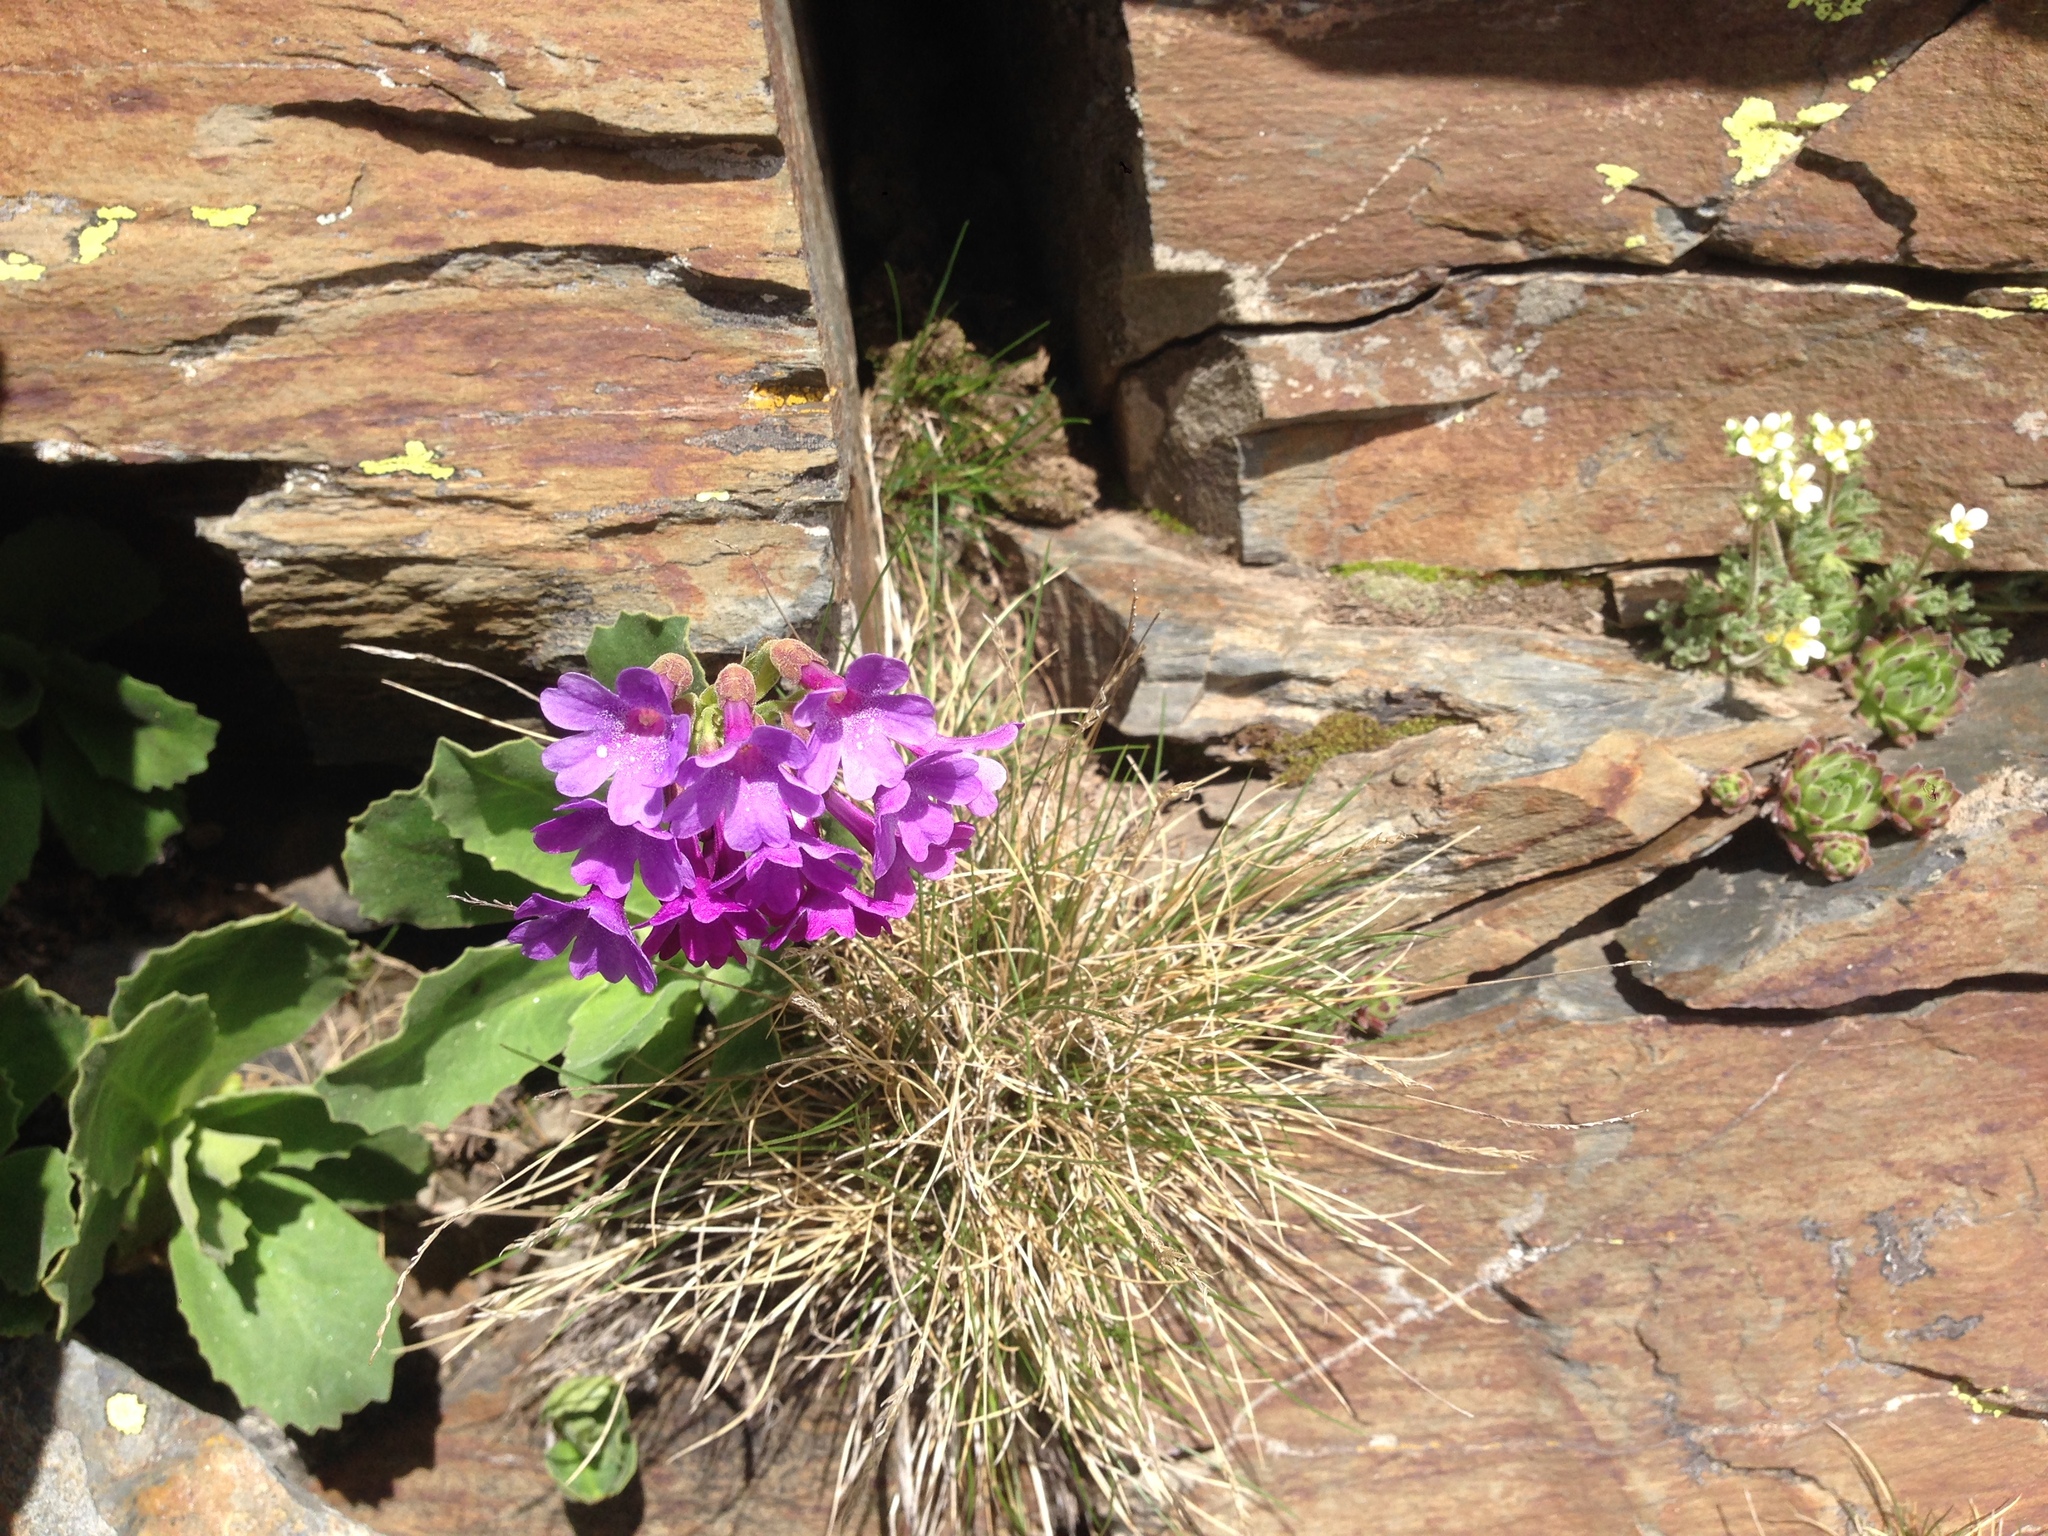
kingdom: Plantae
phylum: Tracheophyta
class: Magnoliopsida
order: Ericales
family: Primulaceae
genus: Primula
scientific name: Primula latifolia
